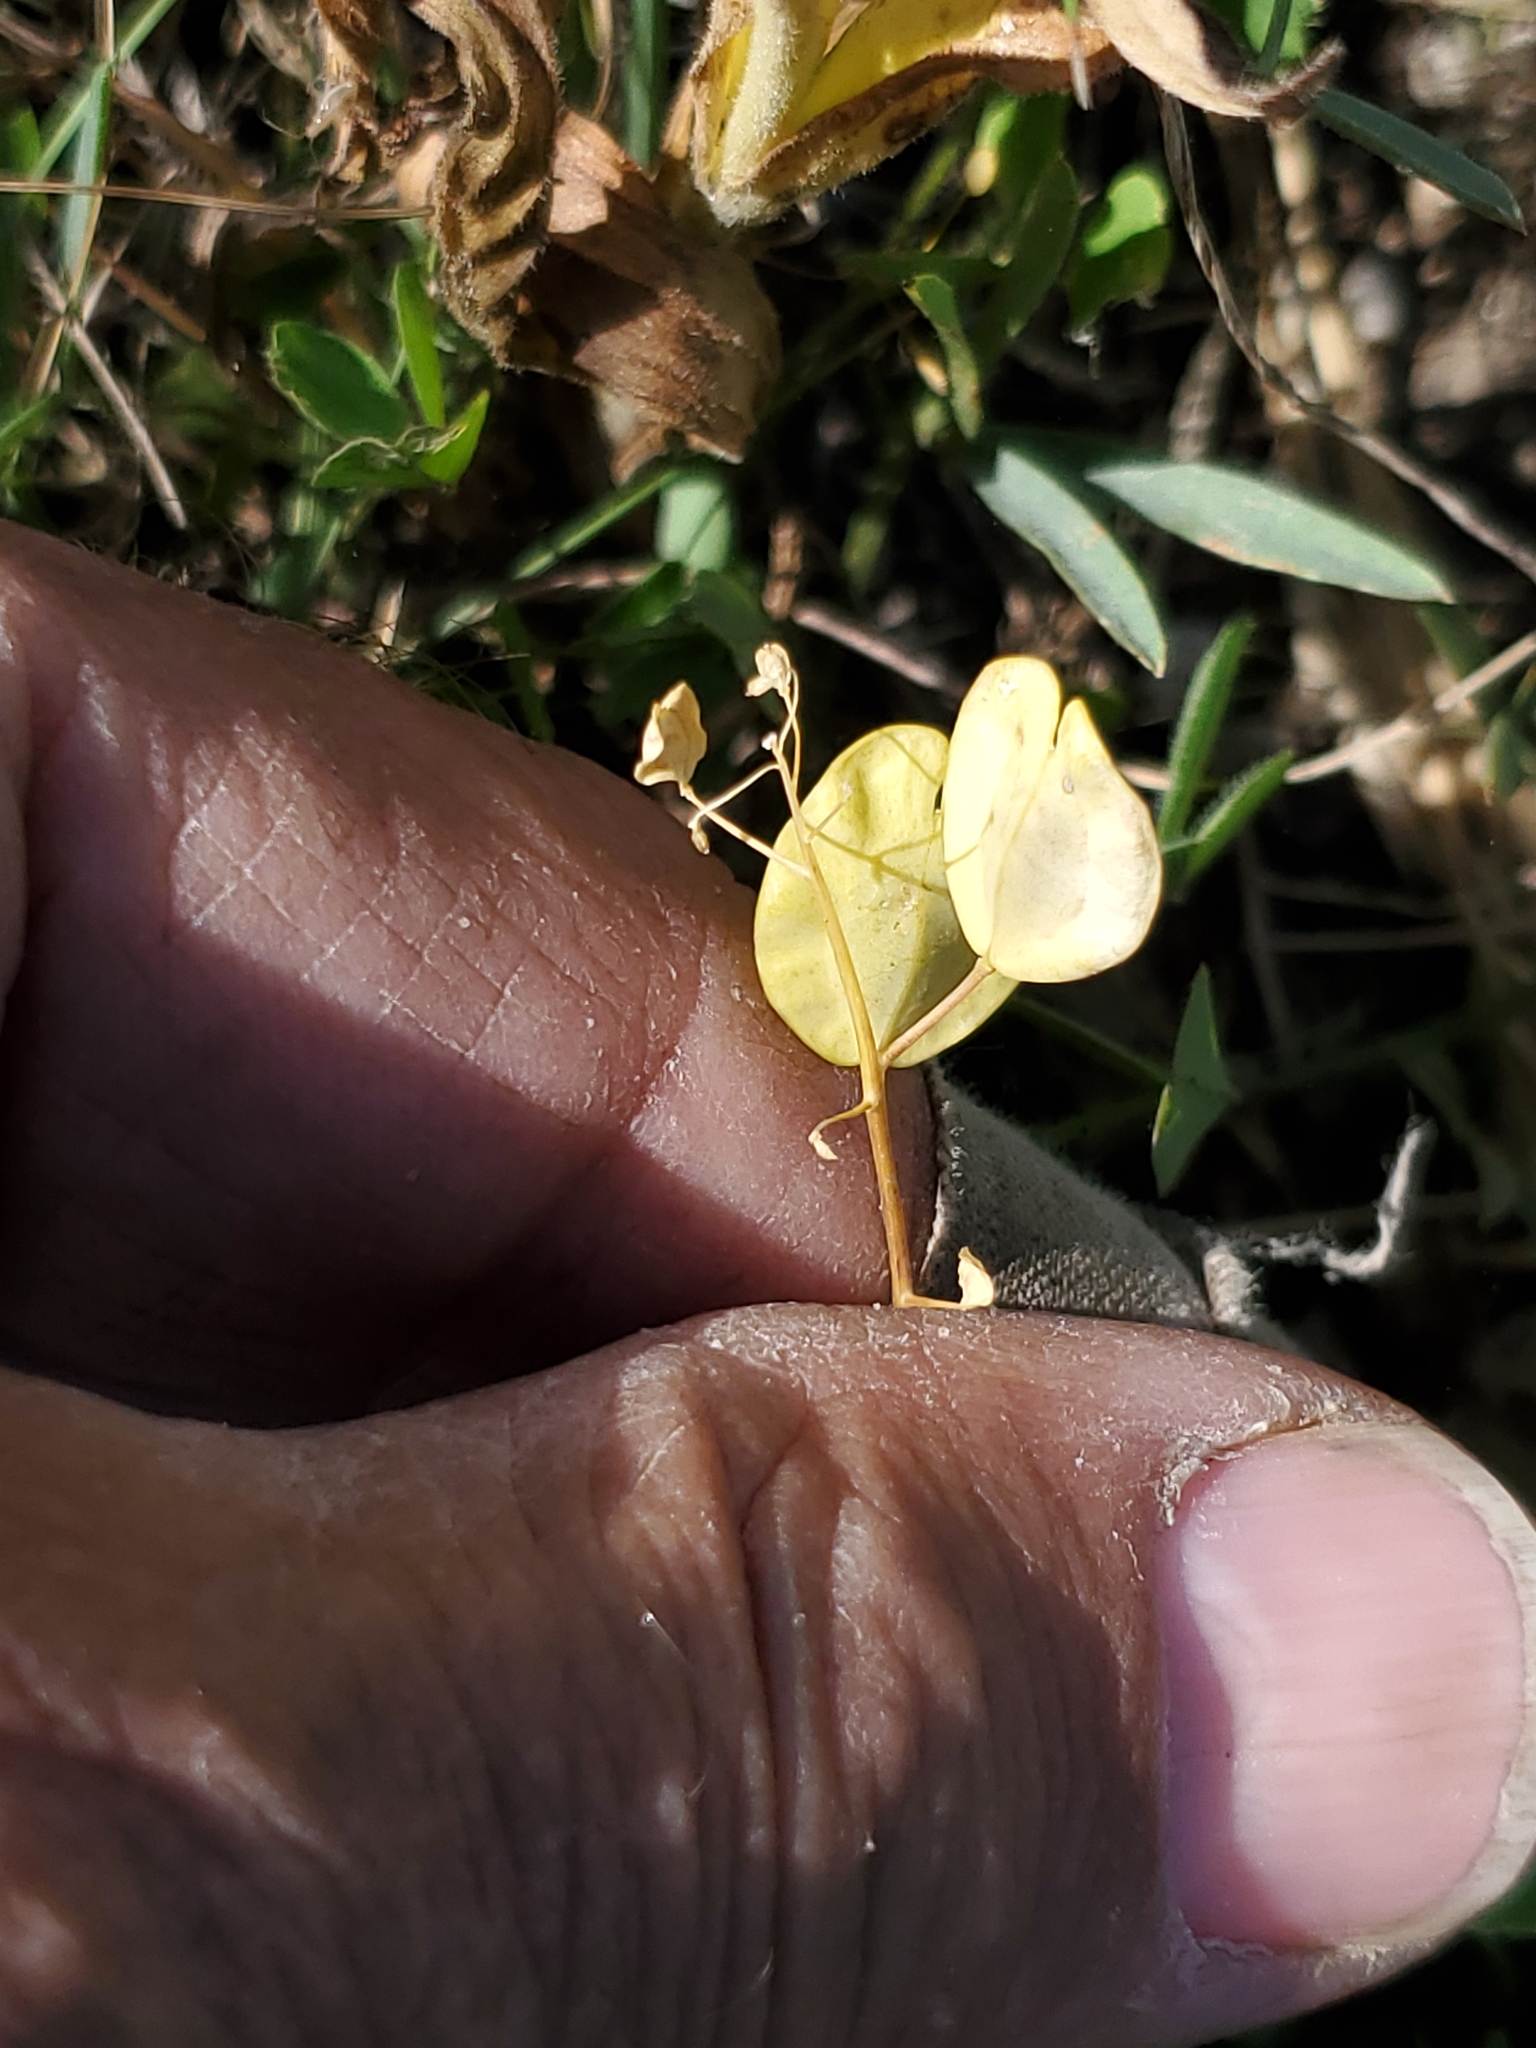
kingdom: Plantae
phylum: Tracheophyta
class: Magnoliopsida
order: Brassicales
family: Brassicaceae
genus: Thlaspi
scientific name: Thlaspi arvense
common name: Field pennycress
